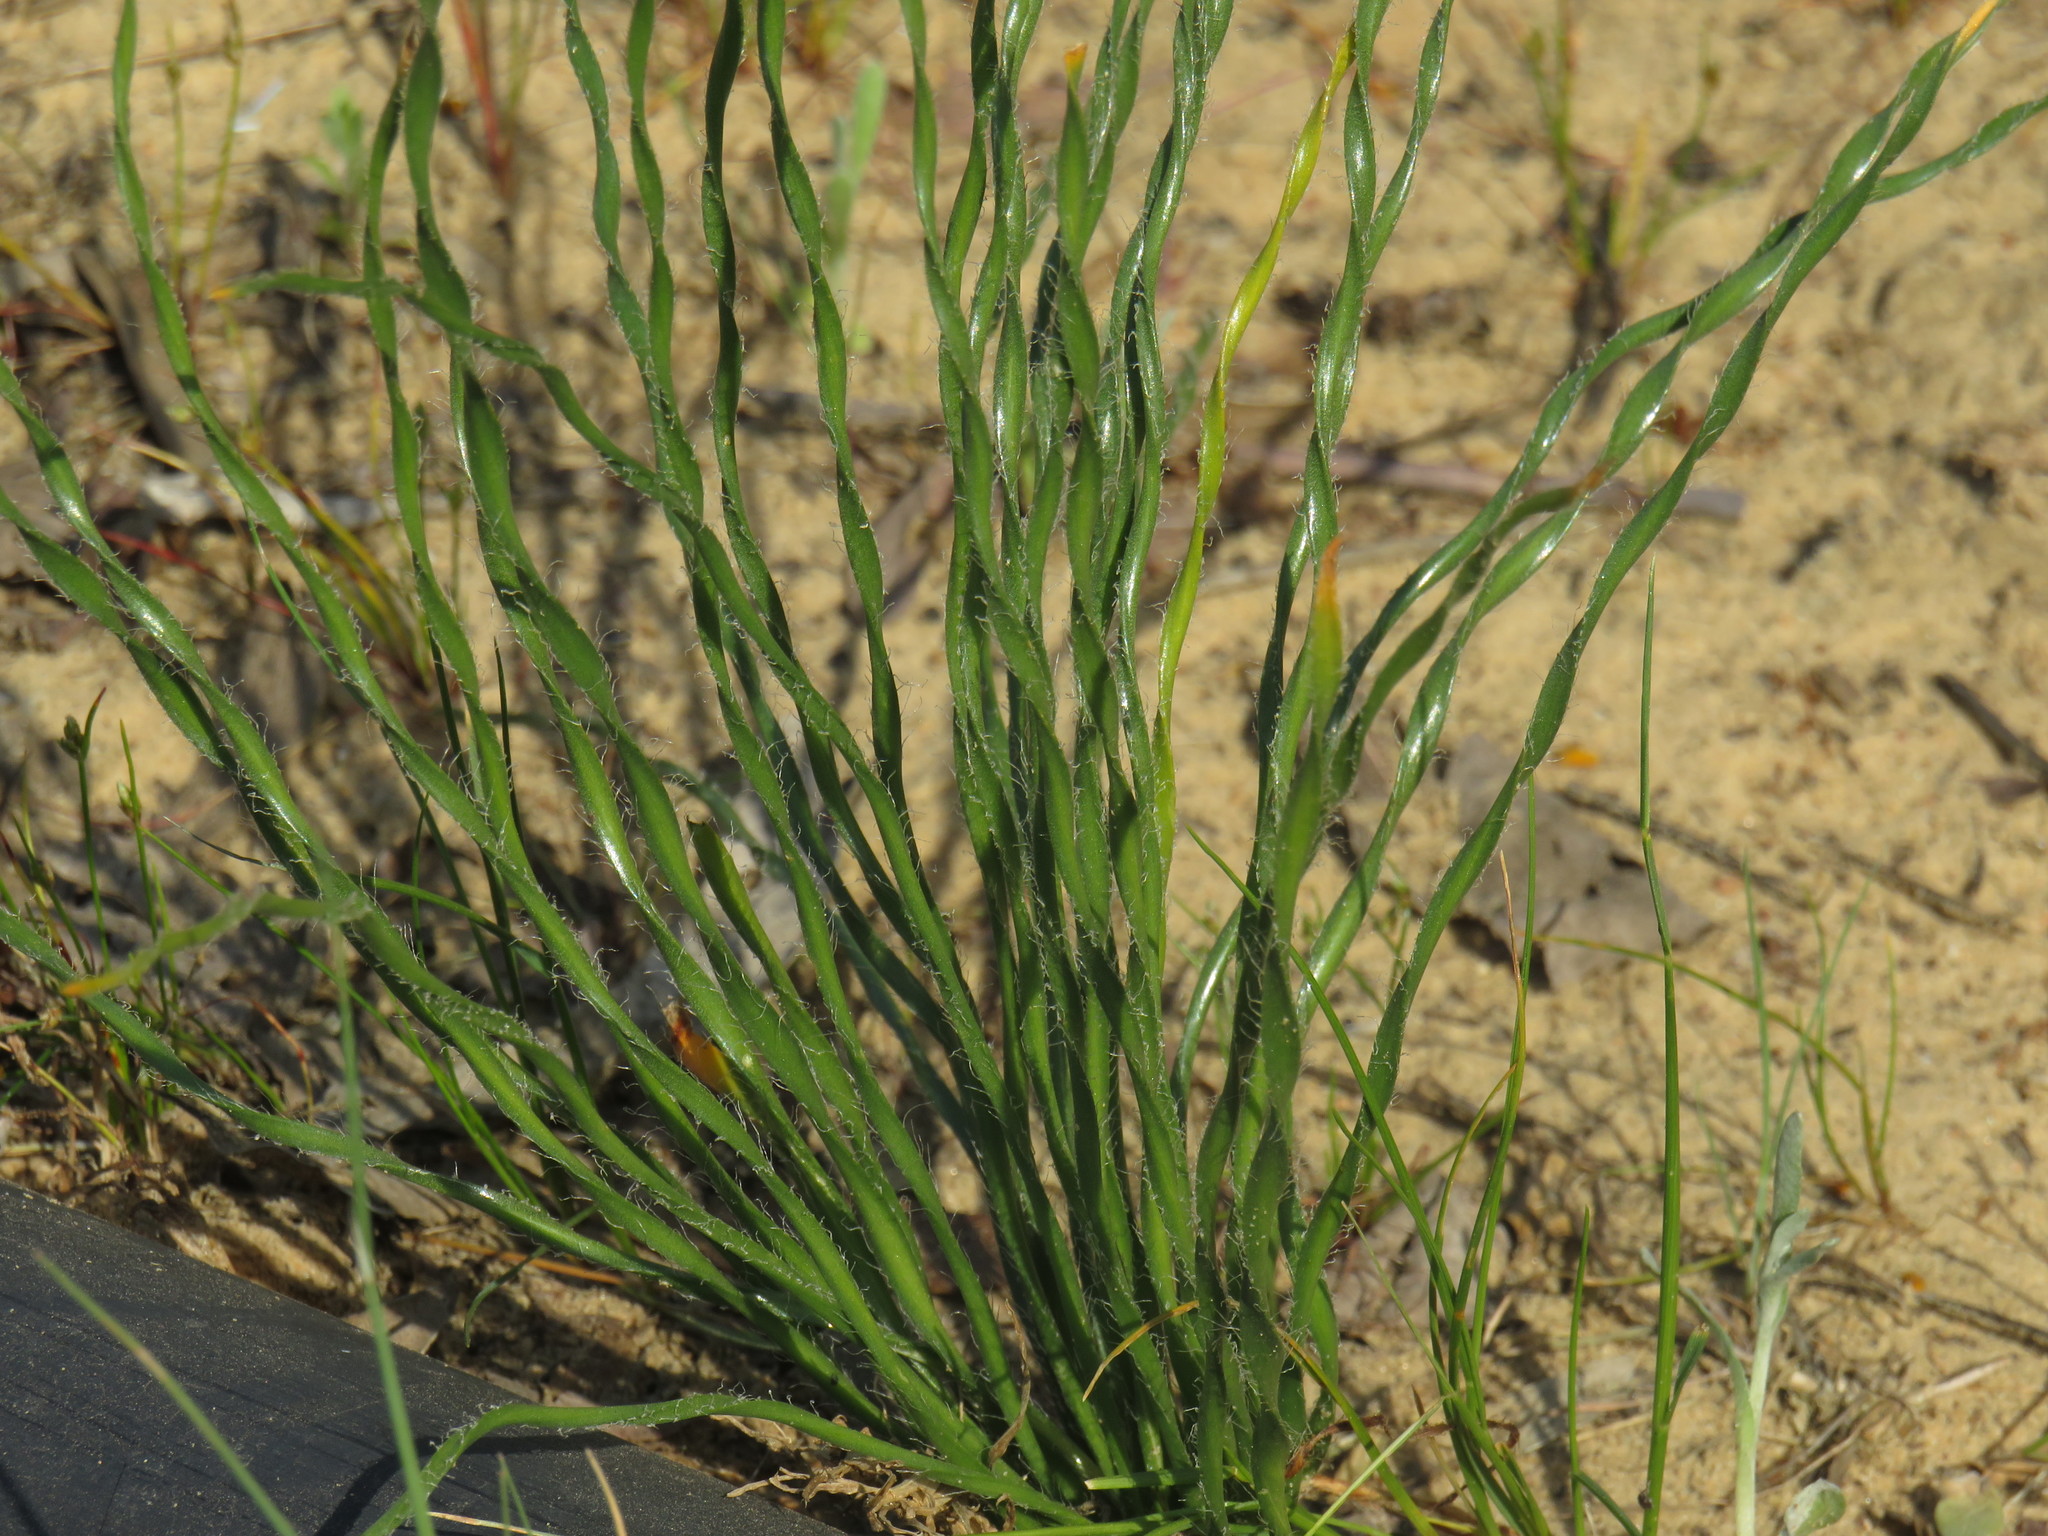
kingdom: Plantae
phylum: Tracheophyta
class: Liliopsida
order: Asparagales
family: Amaryllidaceae
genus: Gethyllis
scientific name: Gethyllis ciliaris
